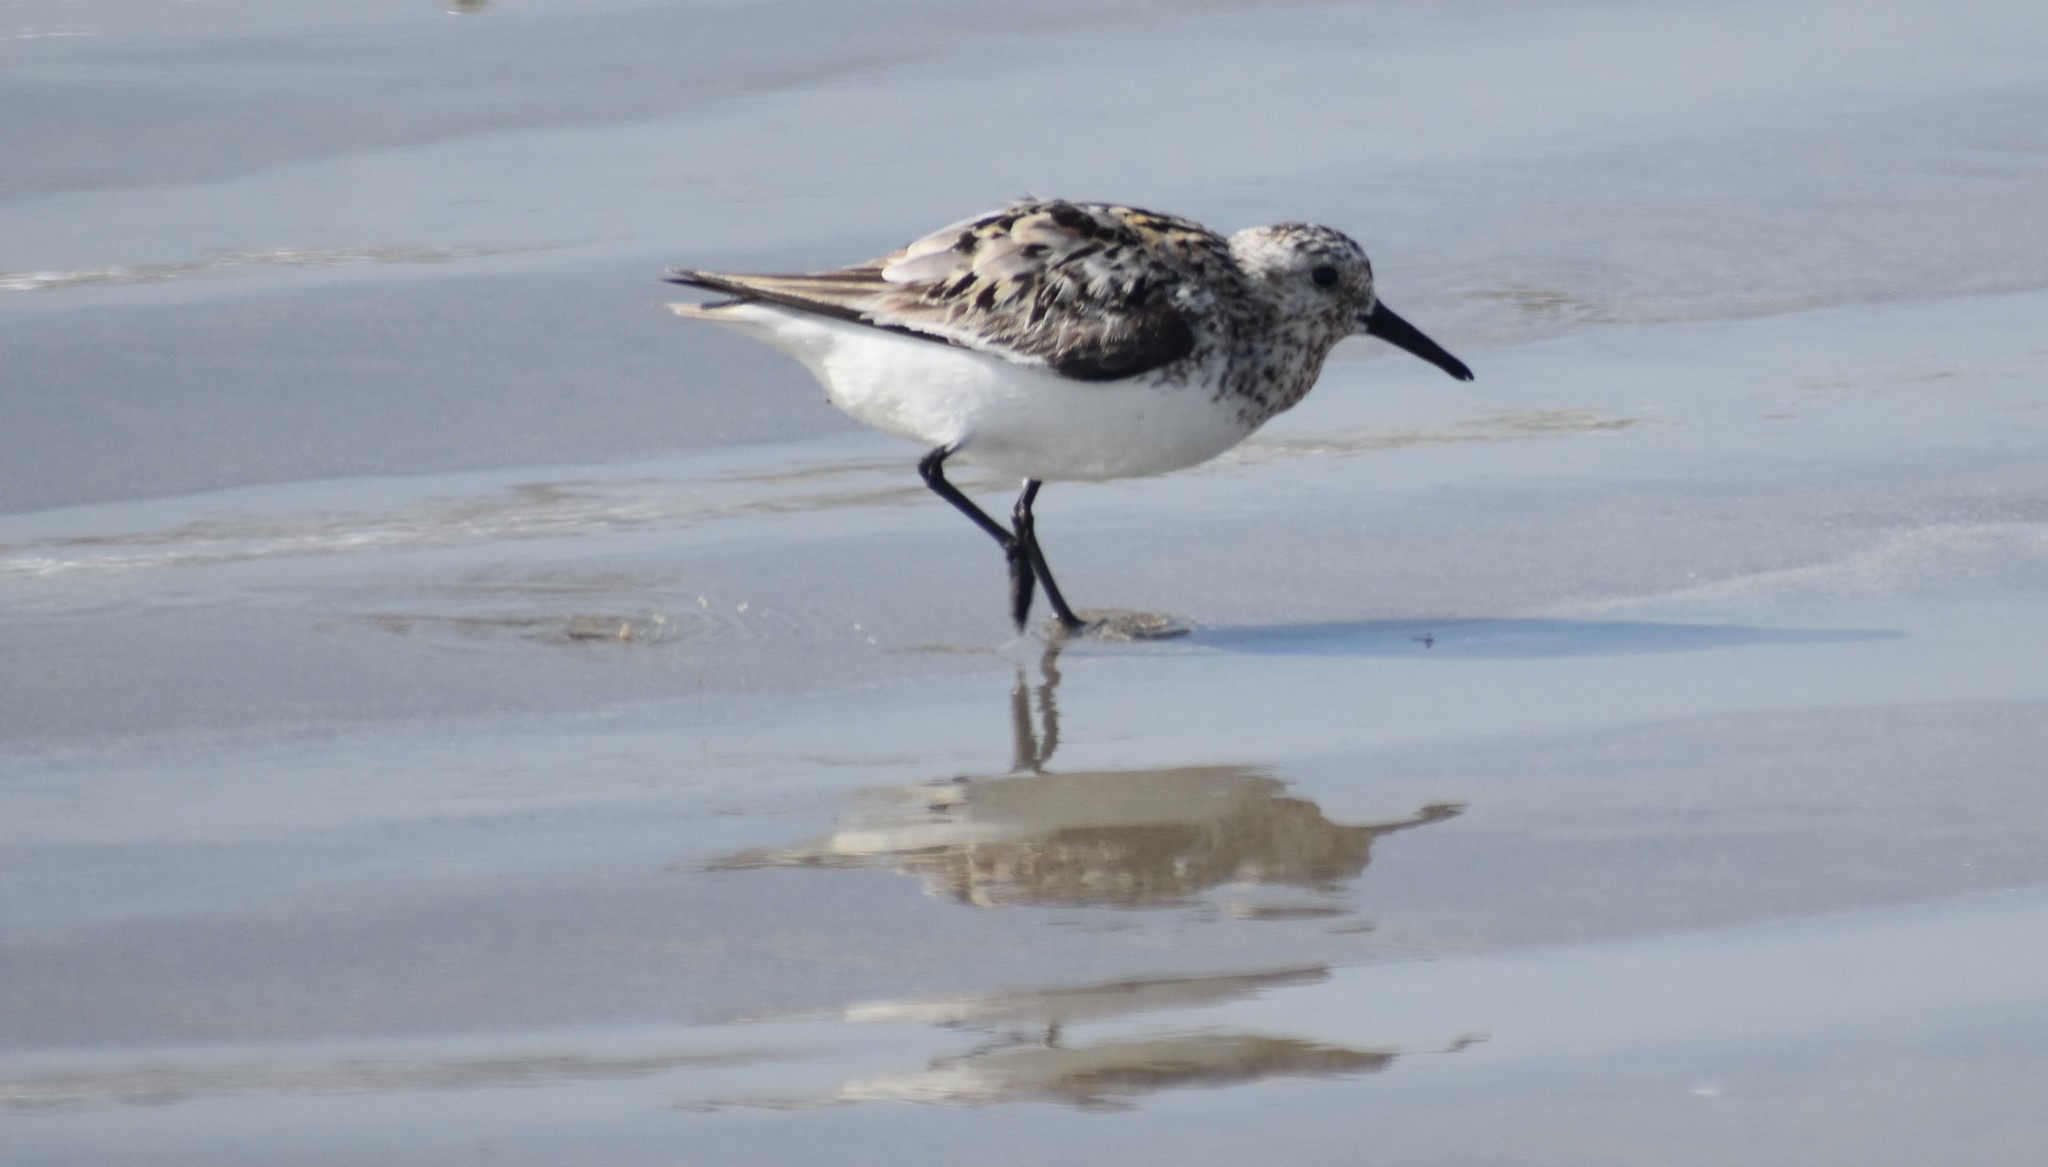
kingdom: Animalia
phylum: Chordata
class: Aves
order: Charadriiformes
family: Scolopacidae
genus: Calidris
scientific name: Calidris alba
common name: Sanderling
